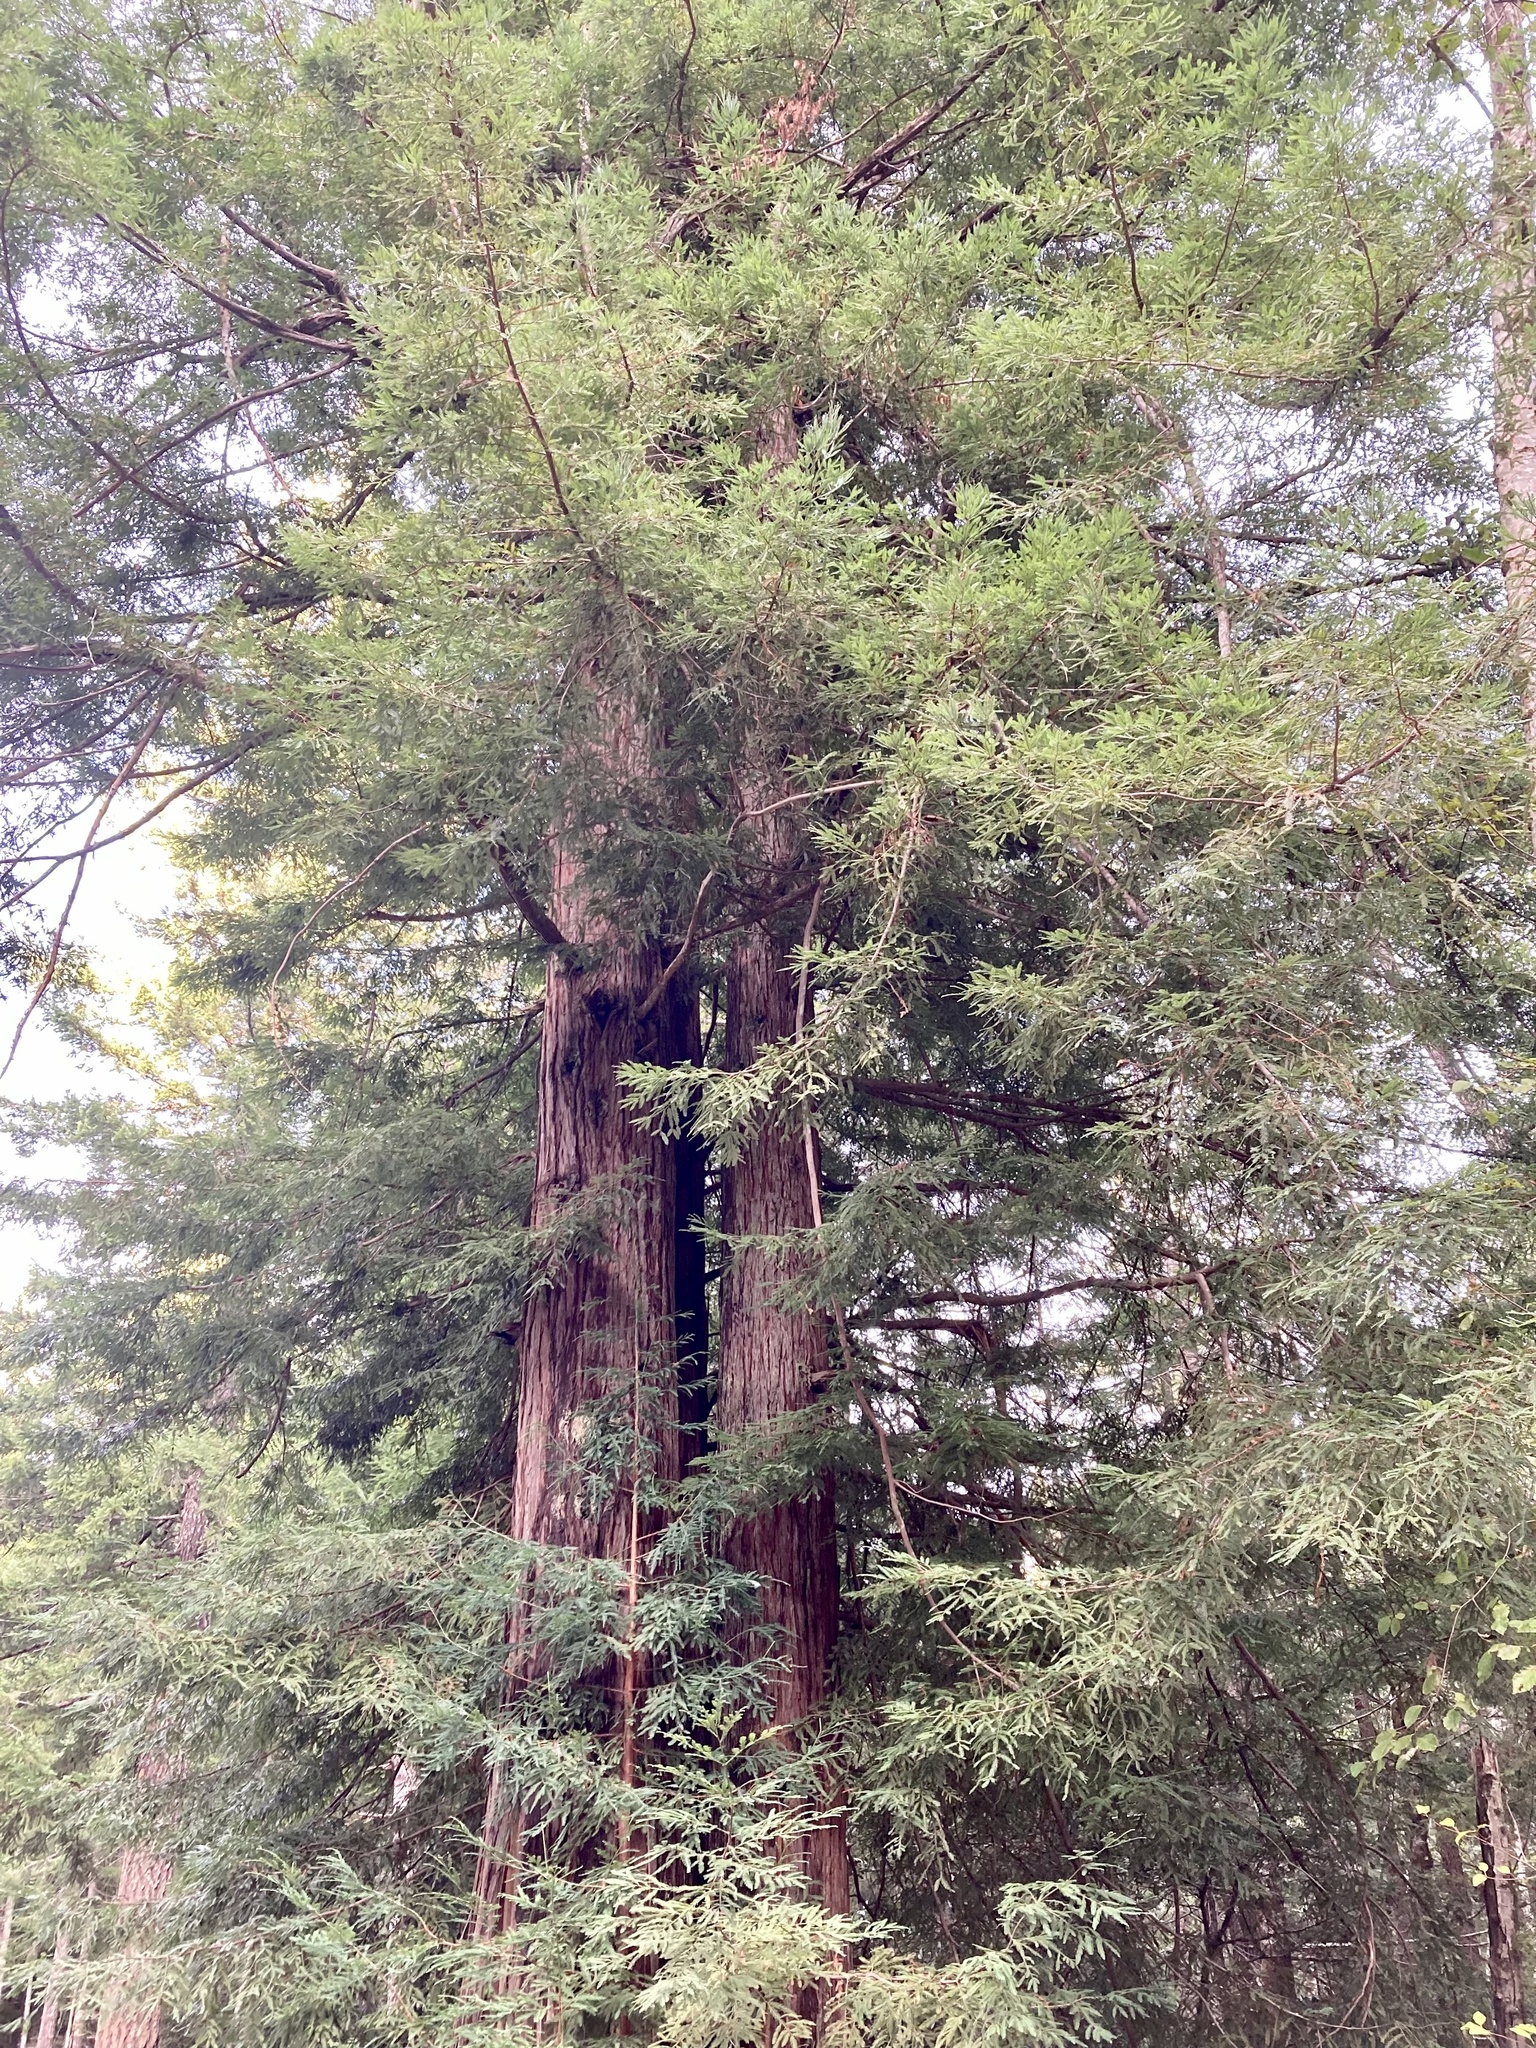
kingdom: Plantae
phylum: Tracheophyta
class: Pinopsida
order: Pinales
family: Cupressaceae
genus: Sequoia
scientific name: Sequoia sempervirens
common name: Coast redwood
